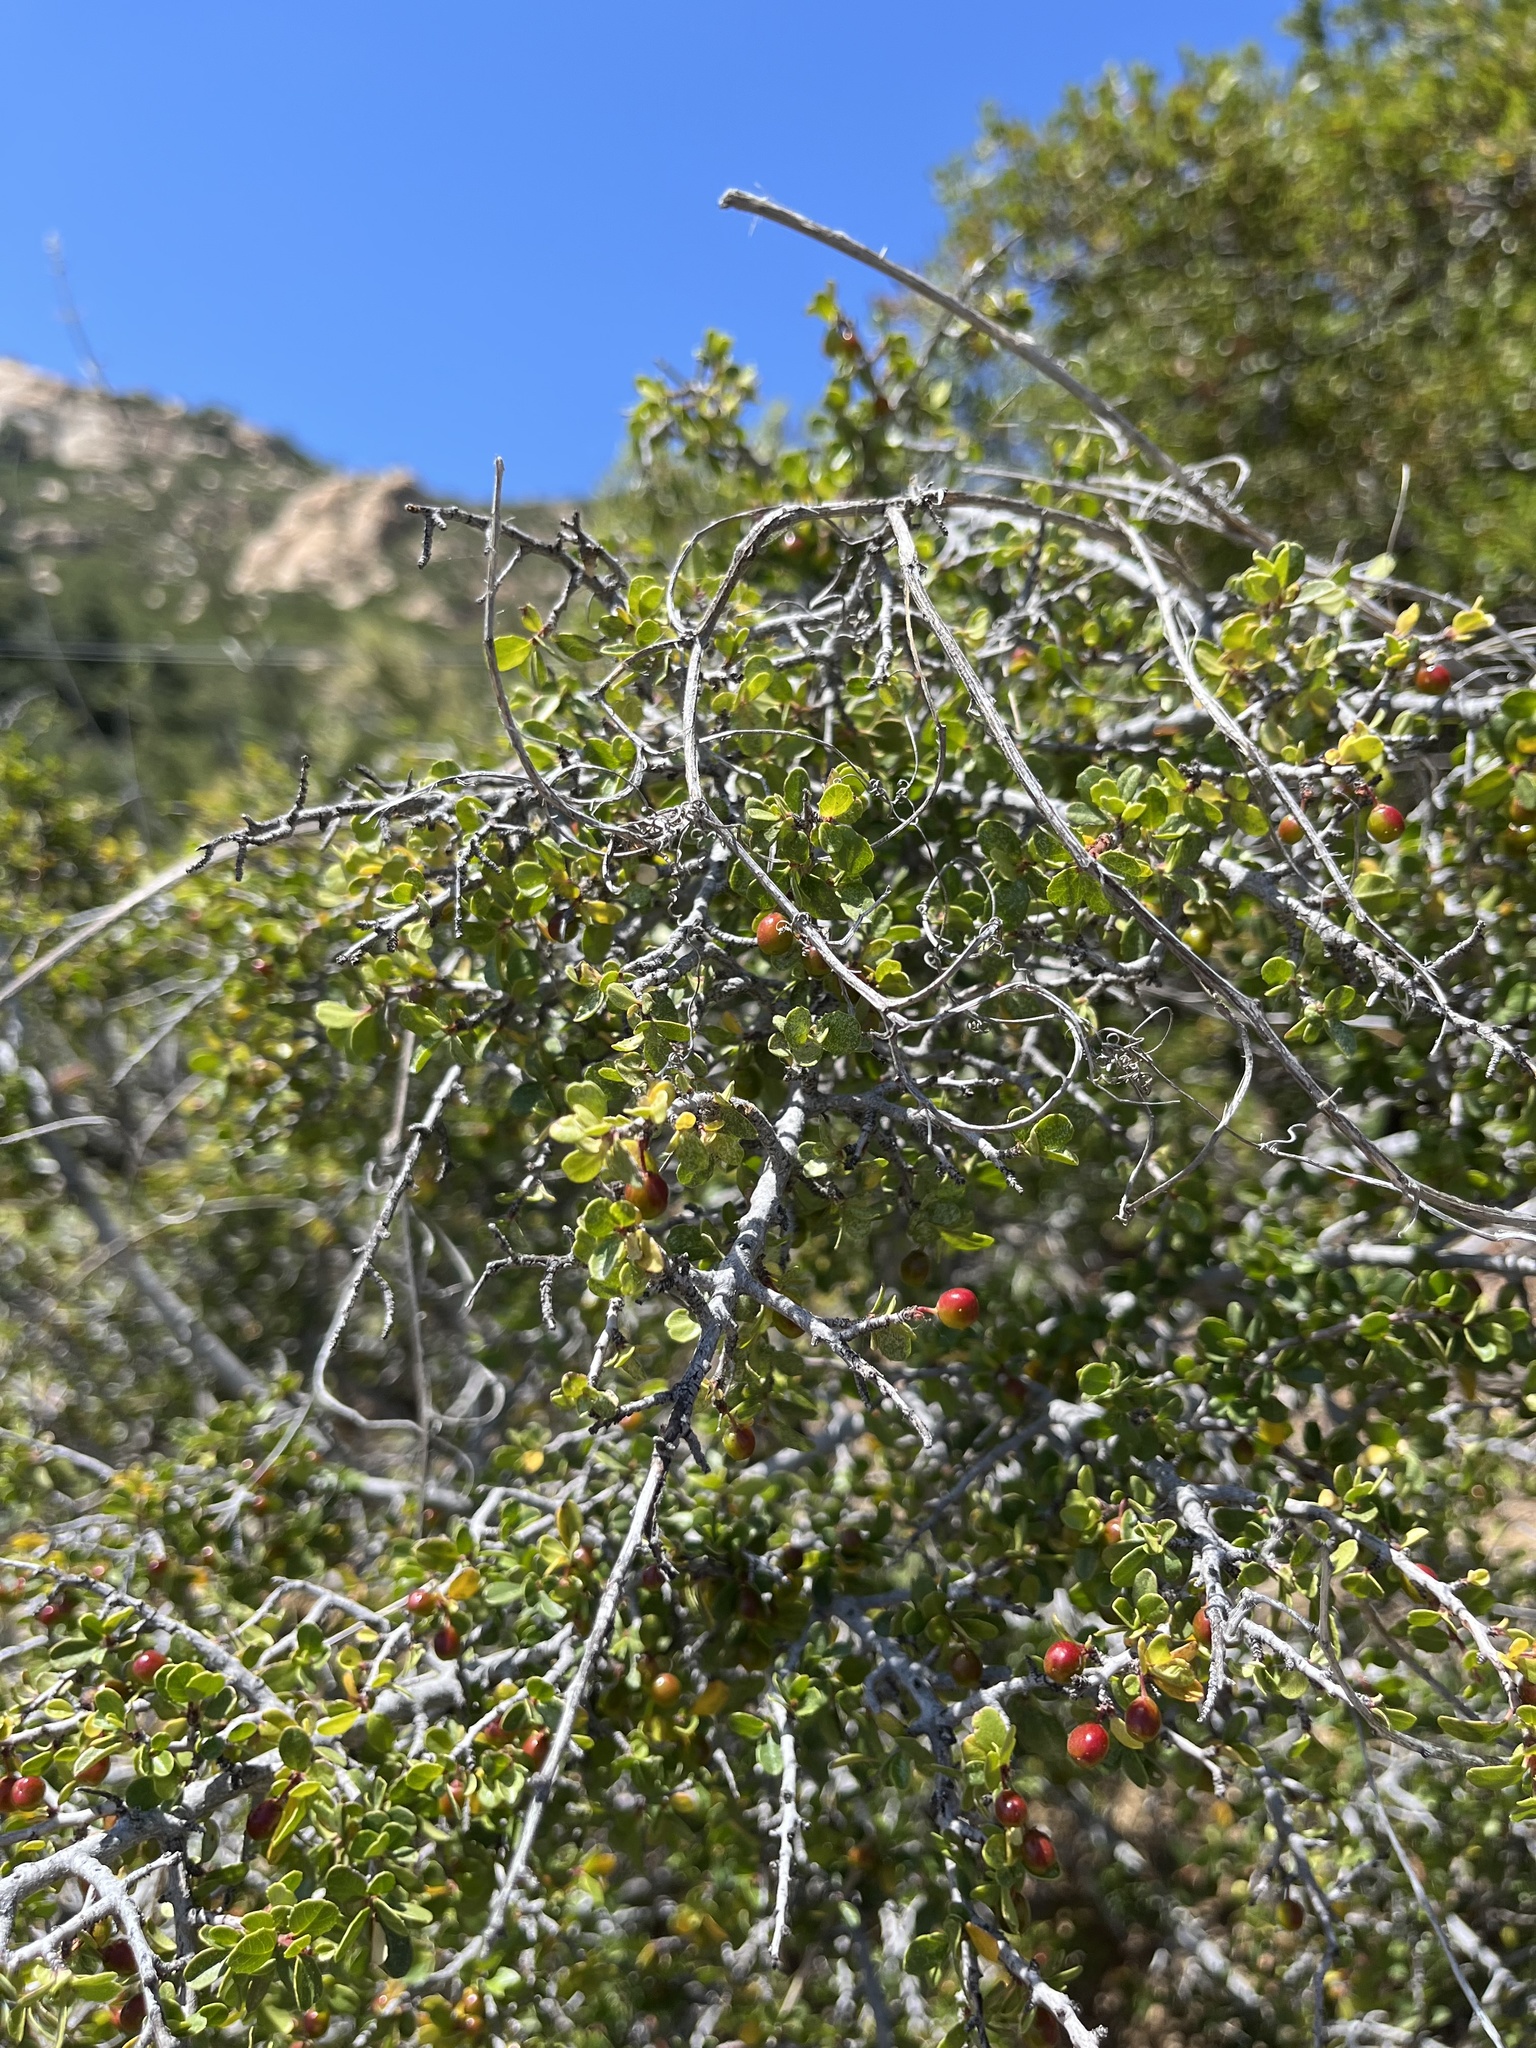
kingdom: Plantae
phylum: Tracheophyta
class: Magnoliopsida
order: Rosales
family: Rhamnaceae
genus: Endotropis
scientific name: Endotropis crocea
